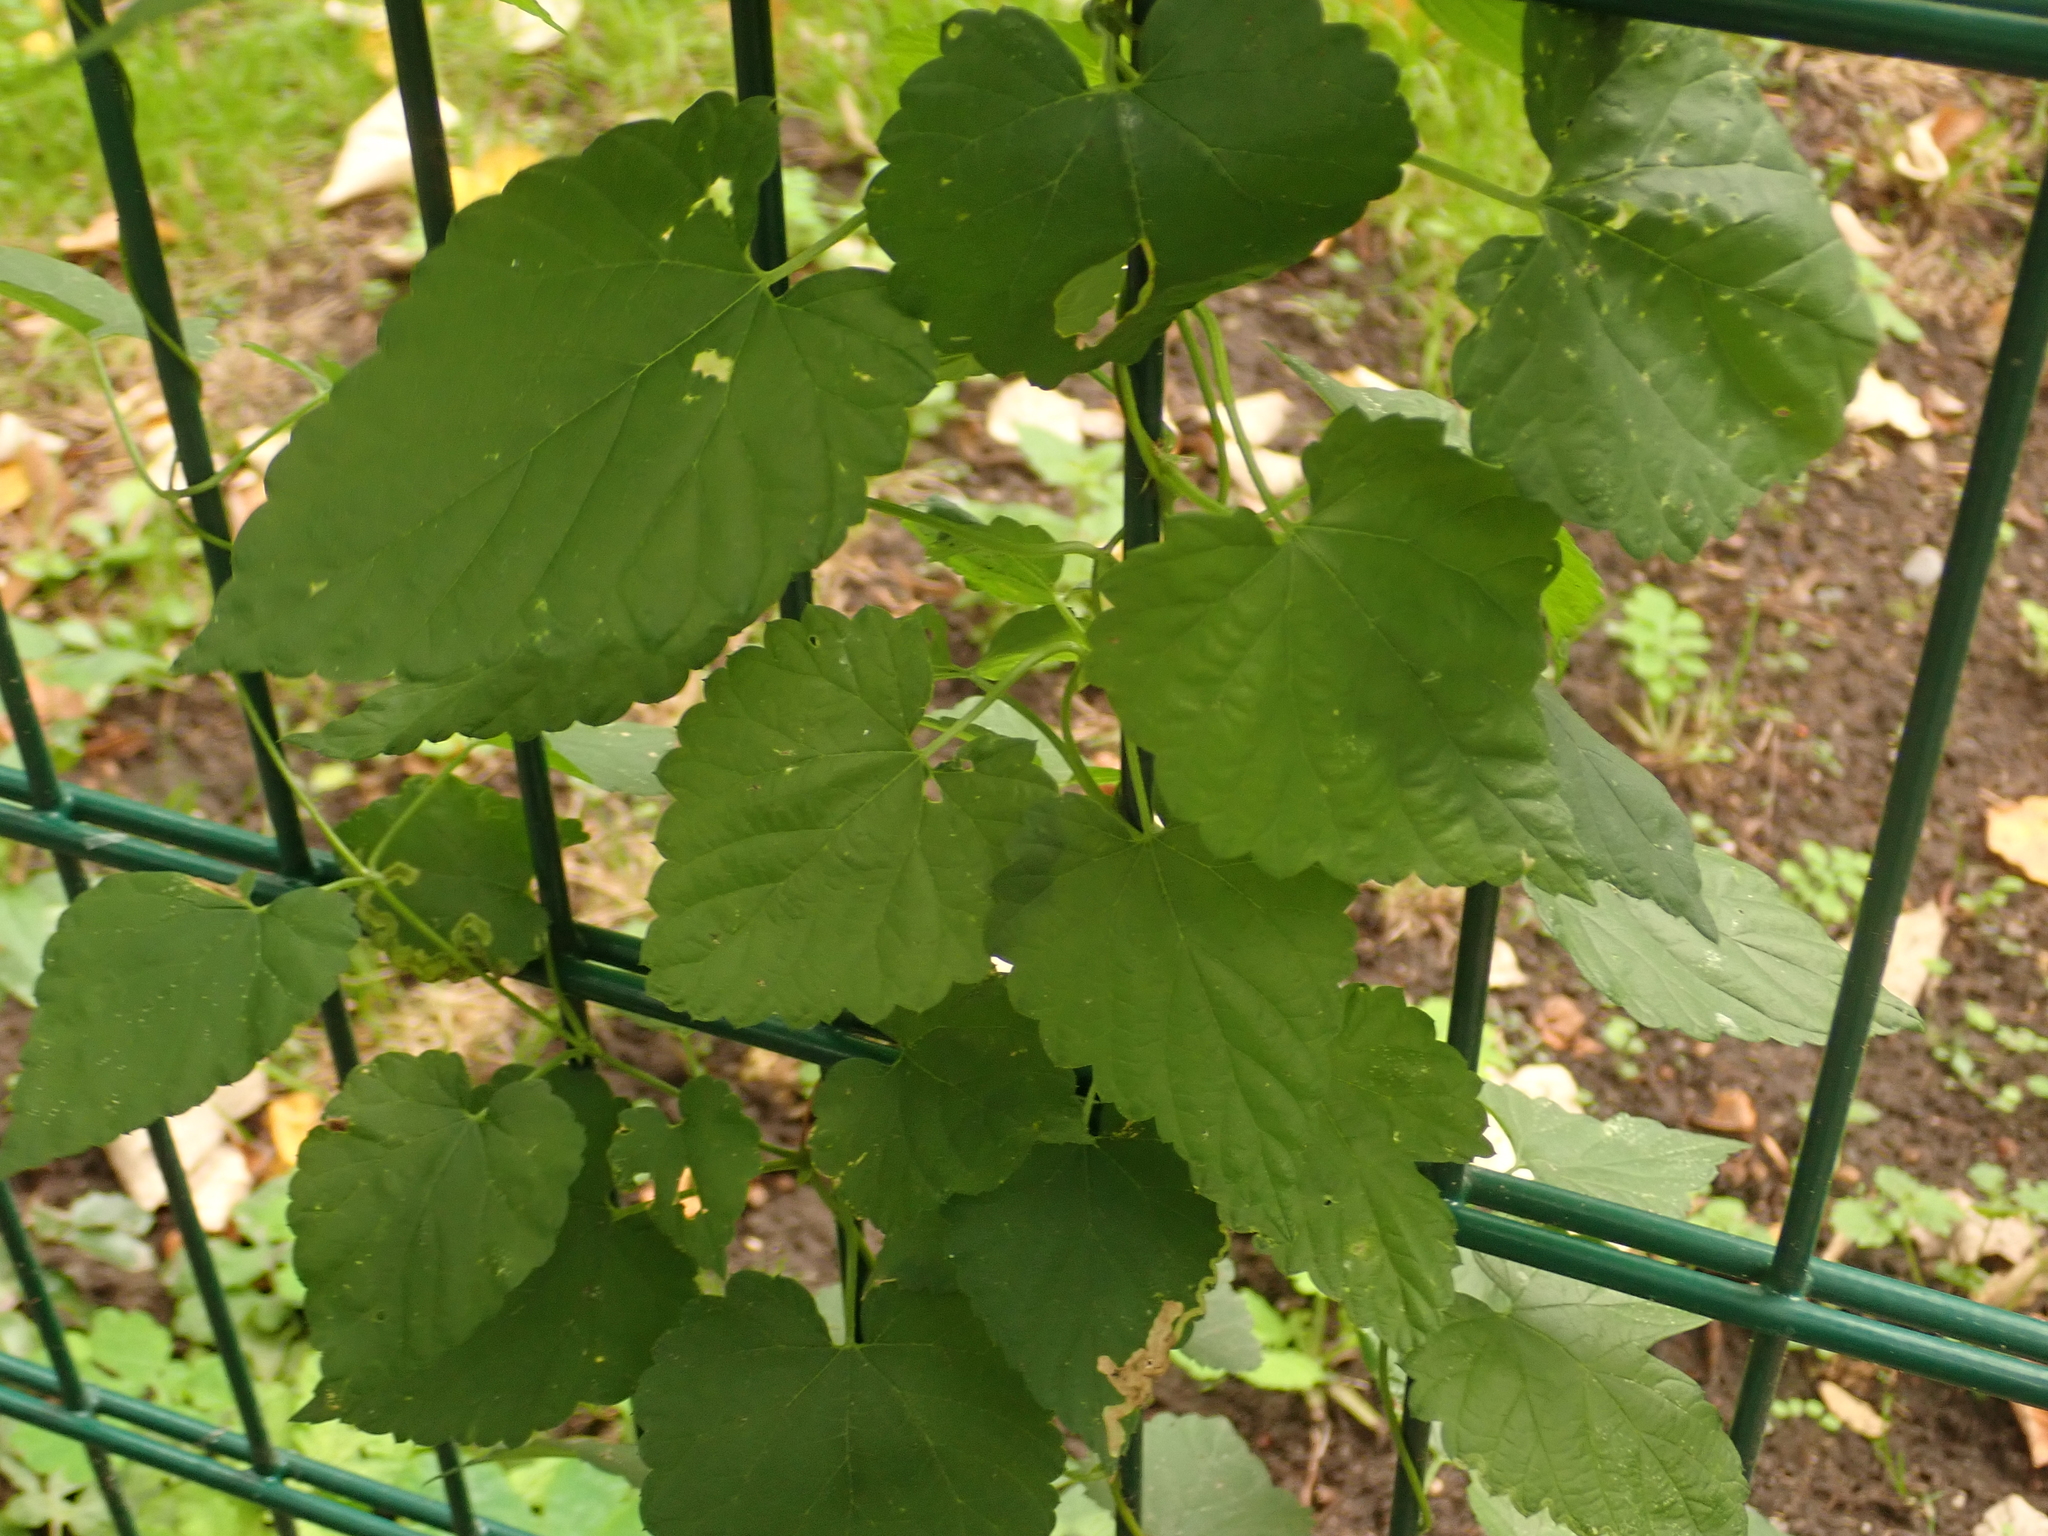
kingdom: Plantae
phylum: Tracheophyta
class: Magnoliopsida
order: Rosales
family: Cannabaceae
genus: Humulus
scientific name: Humulus lupulus
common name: Hop
